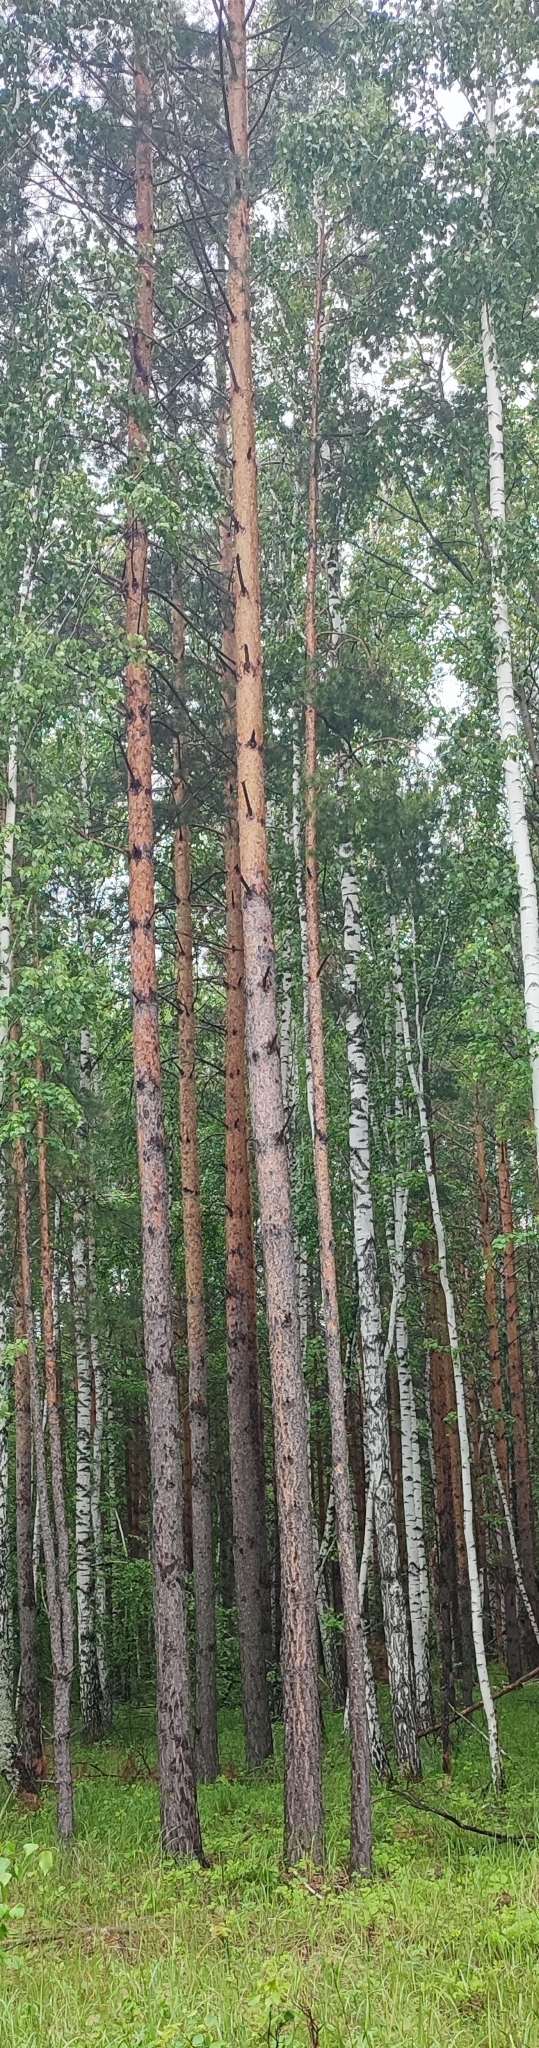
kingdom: Plantae
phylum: Tracheophyta
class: Pinopsida
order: Pinales
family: Pinaceae
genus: Pinus
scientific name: Pinus sylvestris
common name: Scots pine
